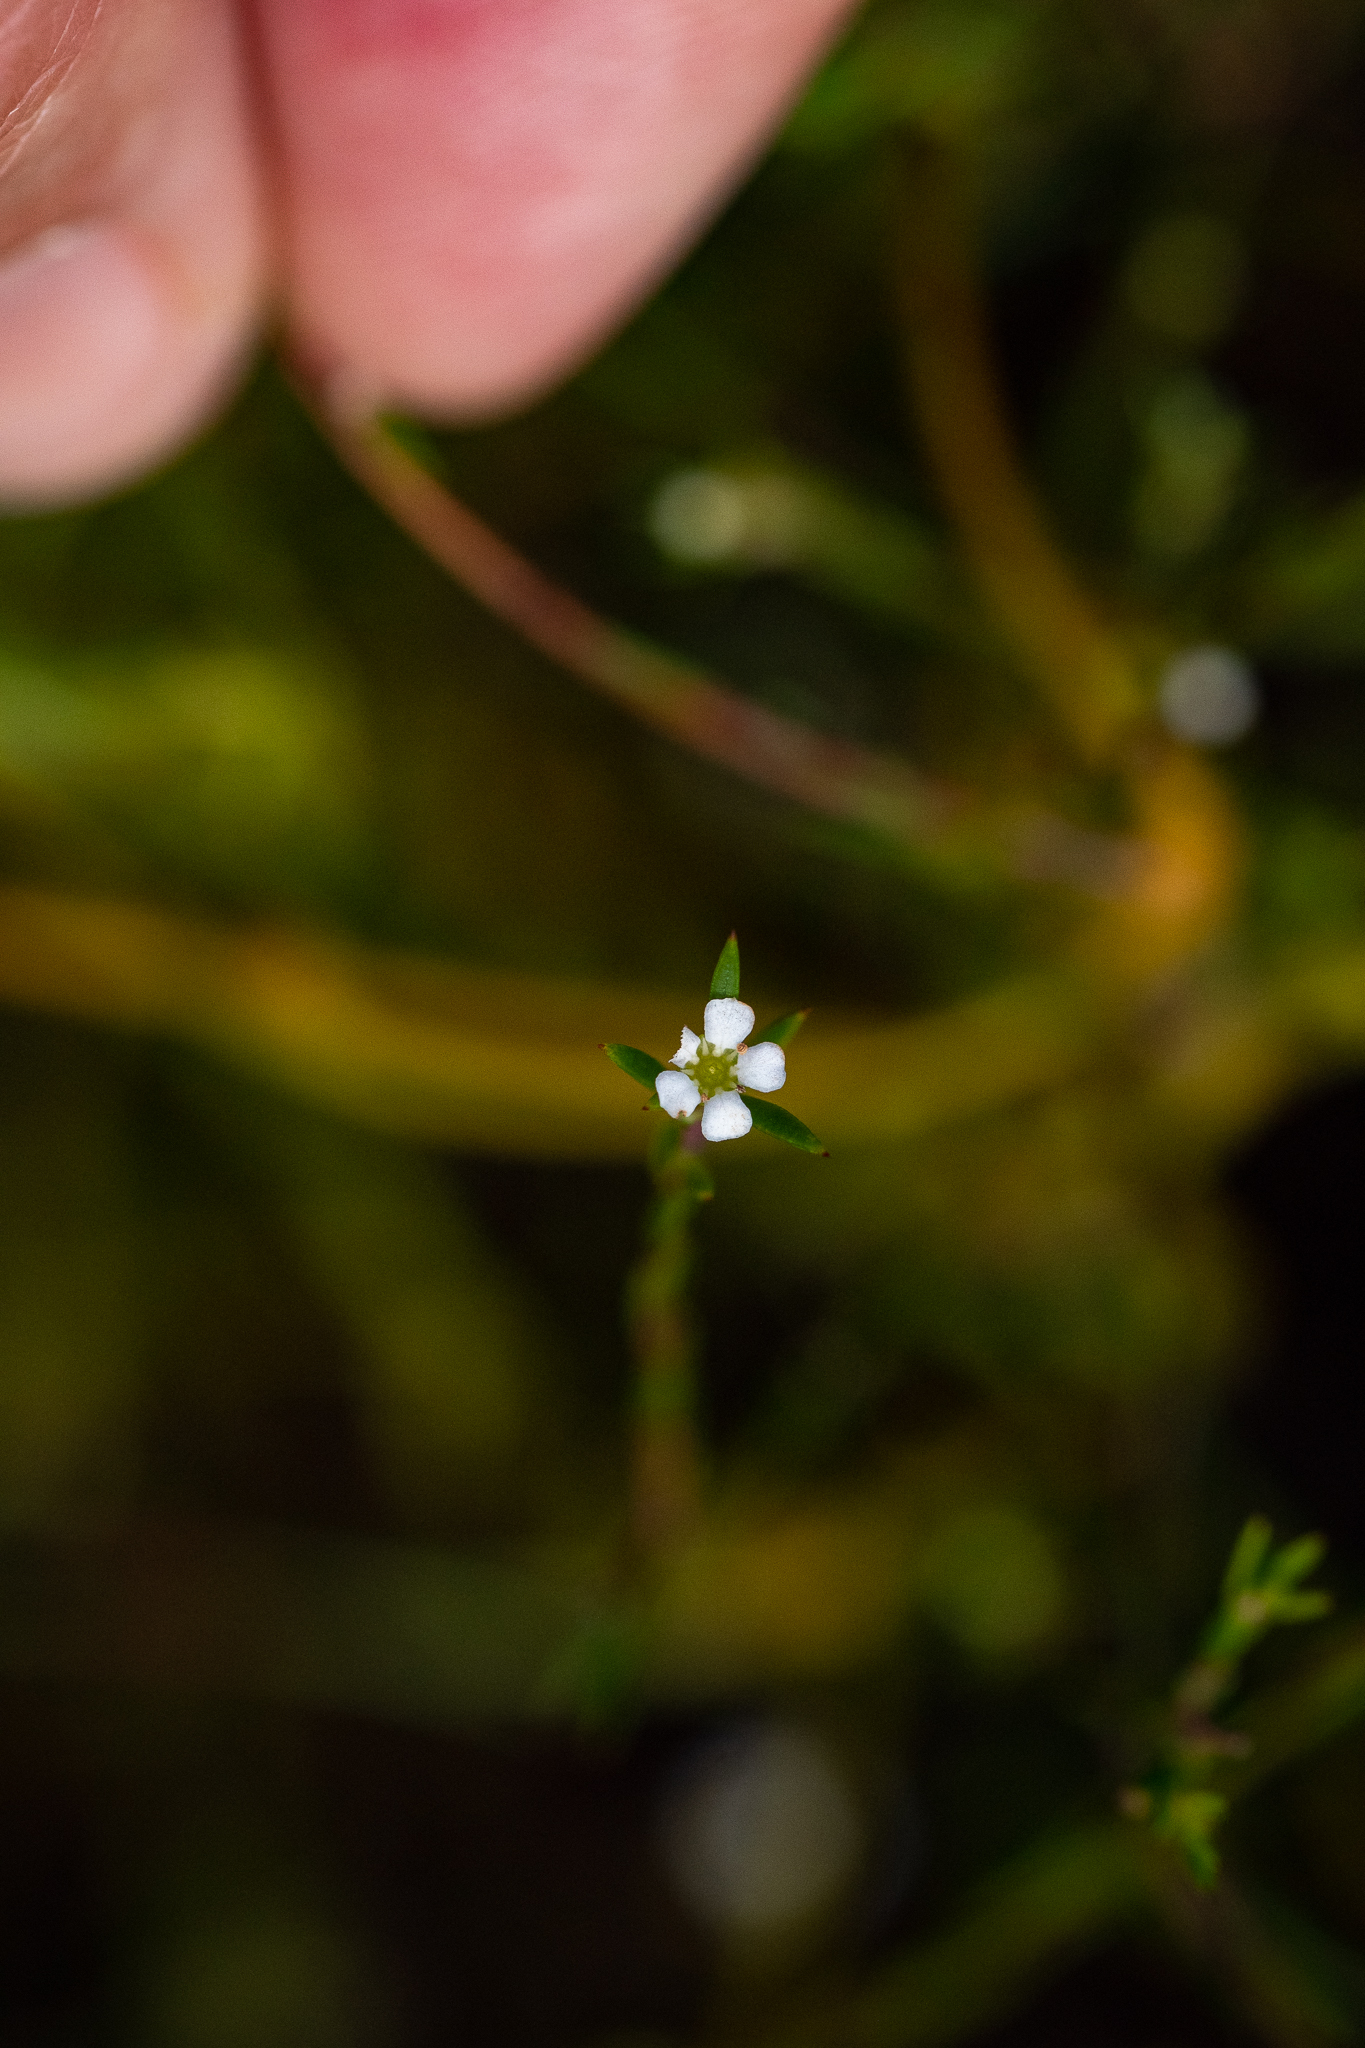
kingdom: Plantae
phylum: Tracheophyta
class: Magnoliopsida
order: Sapindales
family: Rutaceae
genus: Coleonema
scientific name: Coleonema juniperinum
